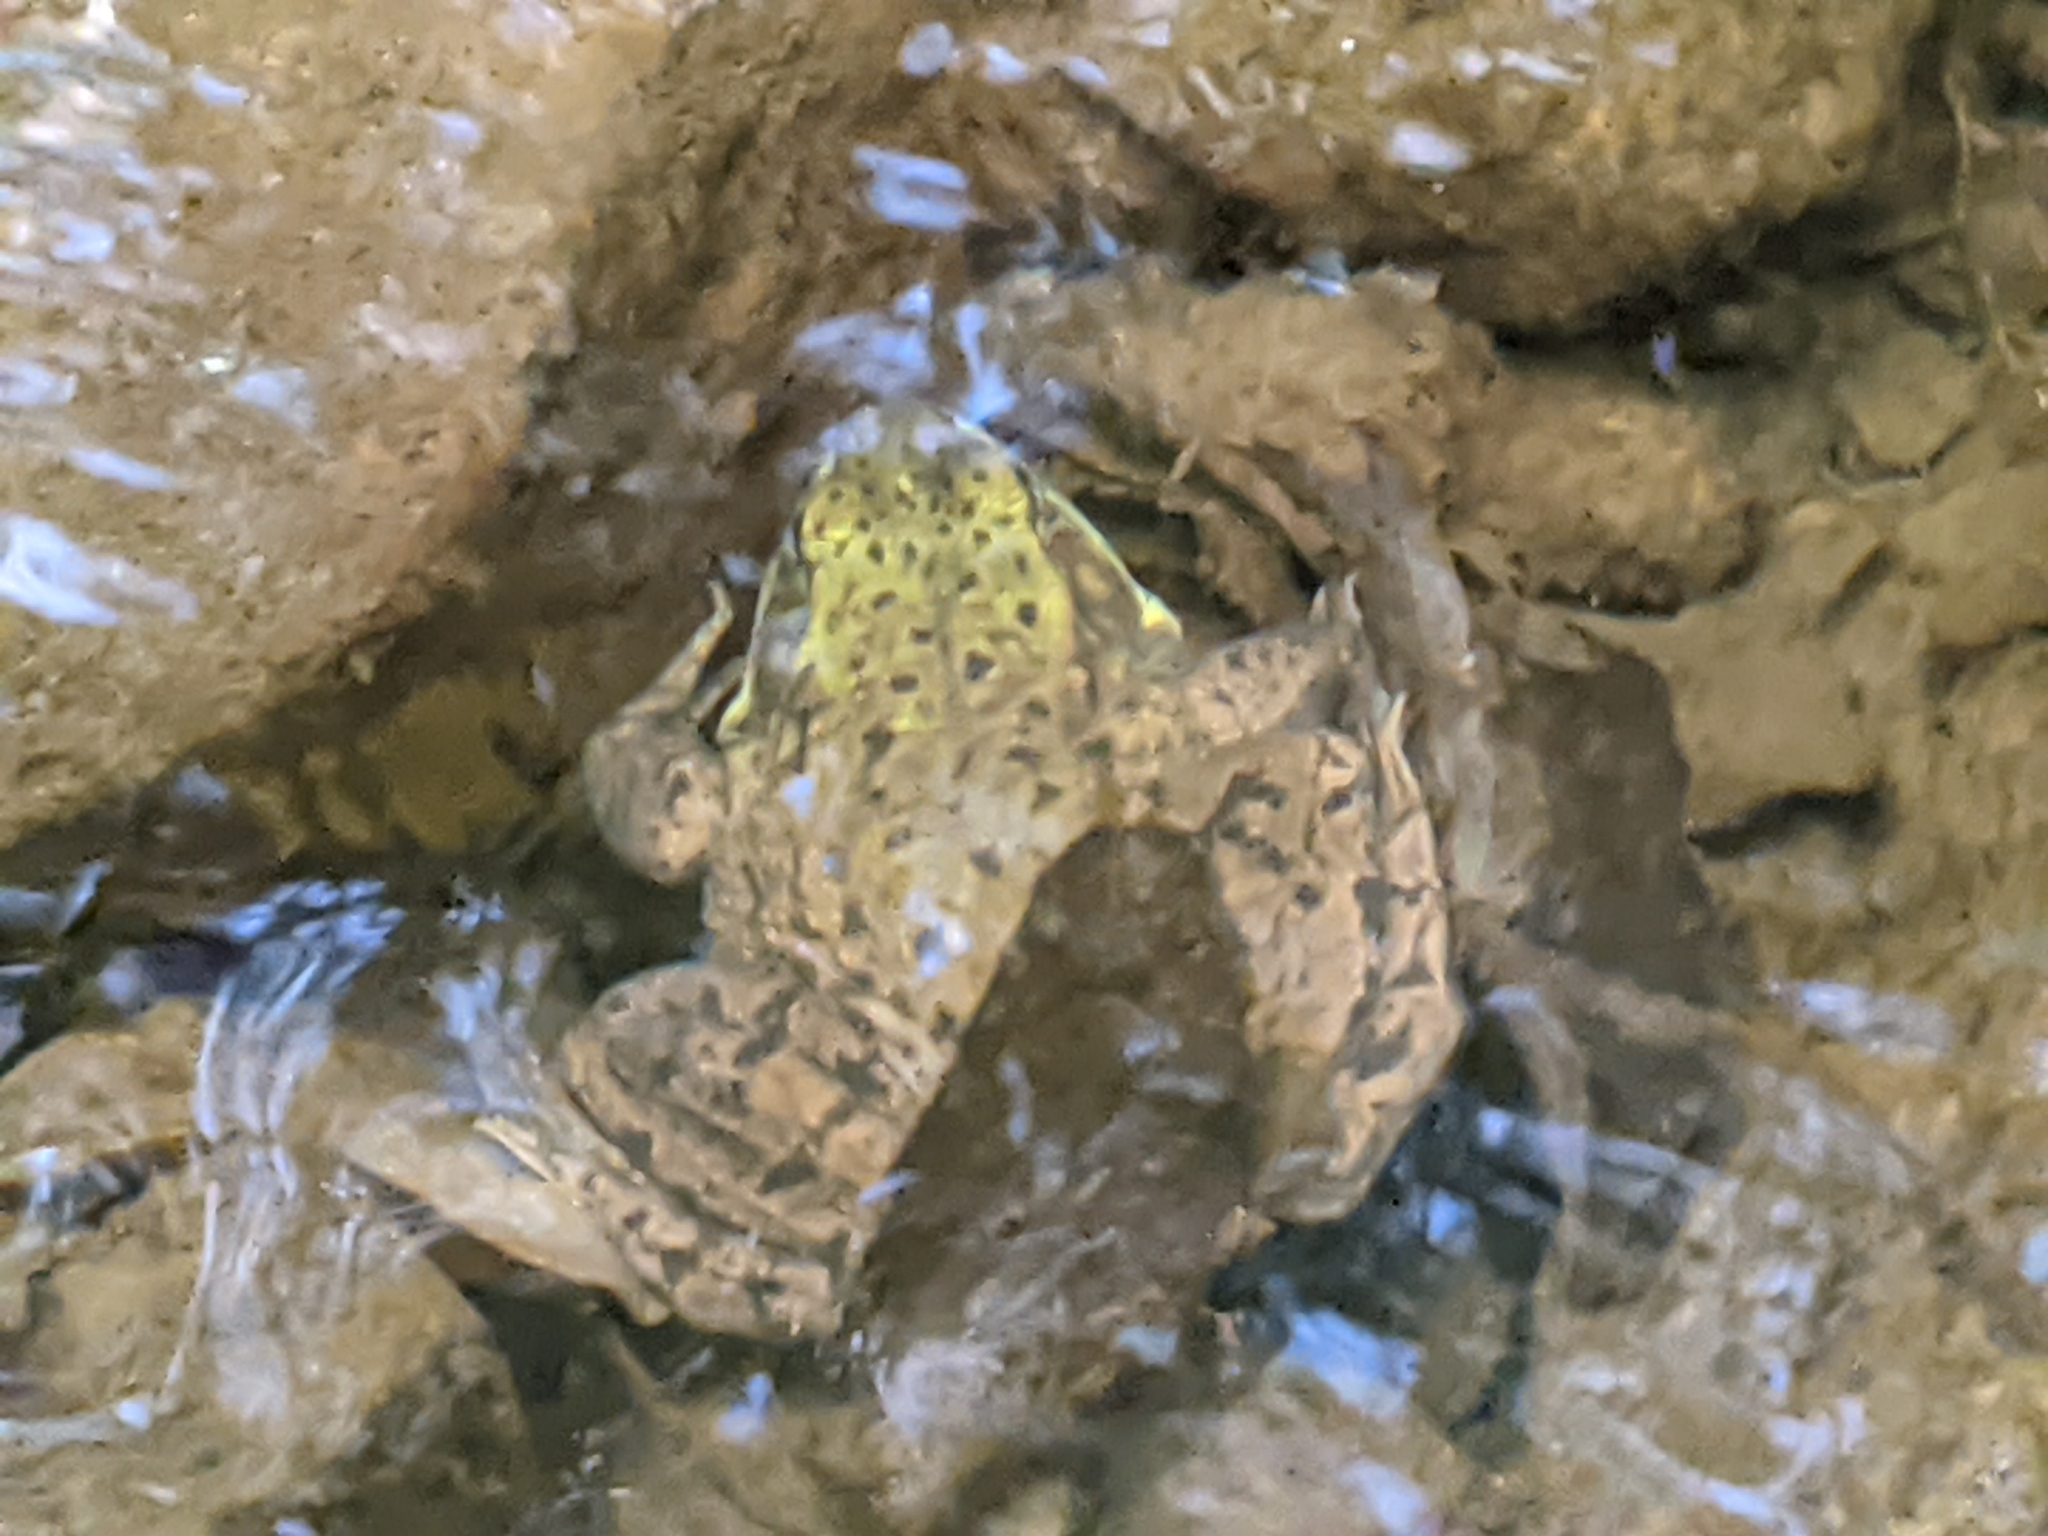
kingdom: Animalia
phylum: Chordata
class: Amphibia
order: Anura
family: Ranidae
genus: Lithobates
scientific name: Lithobates clamitans
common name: Green frog
